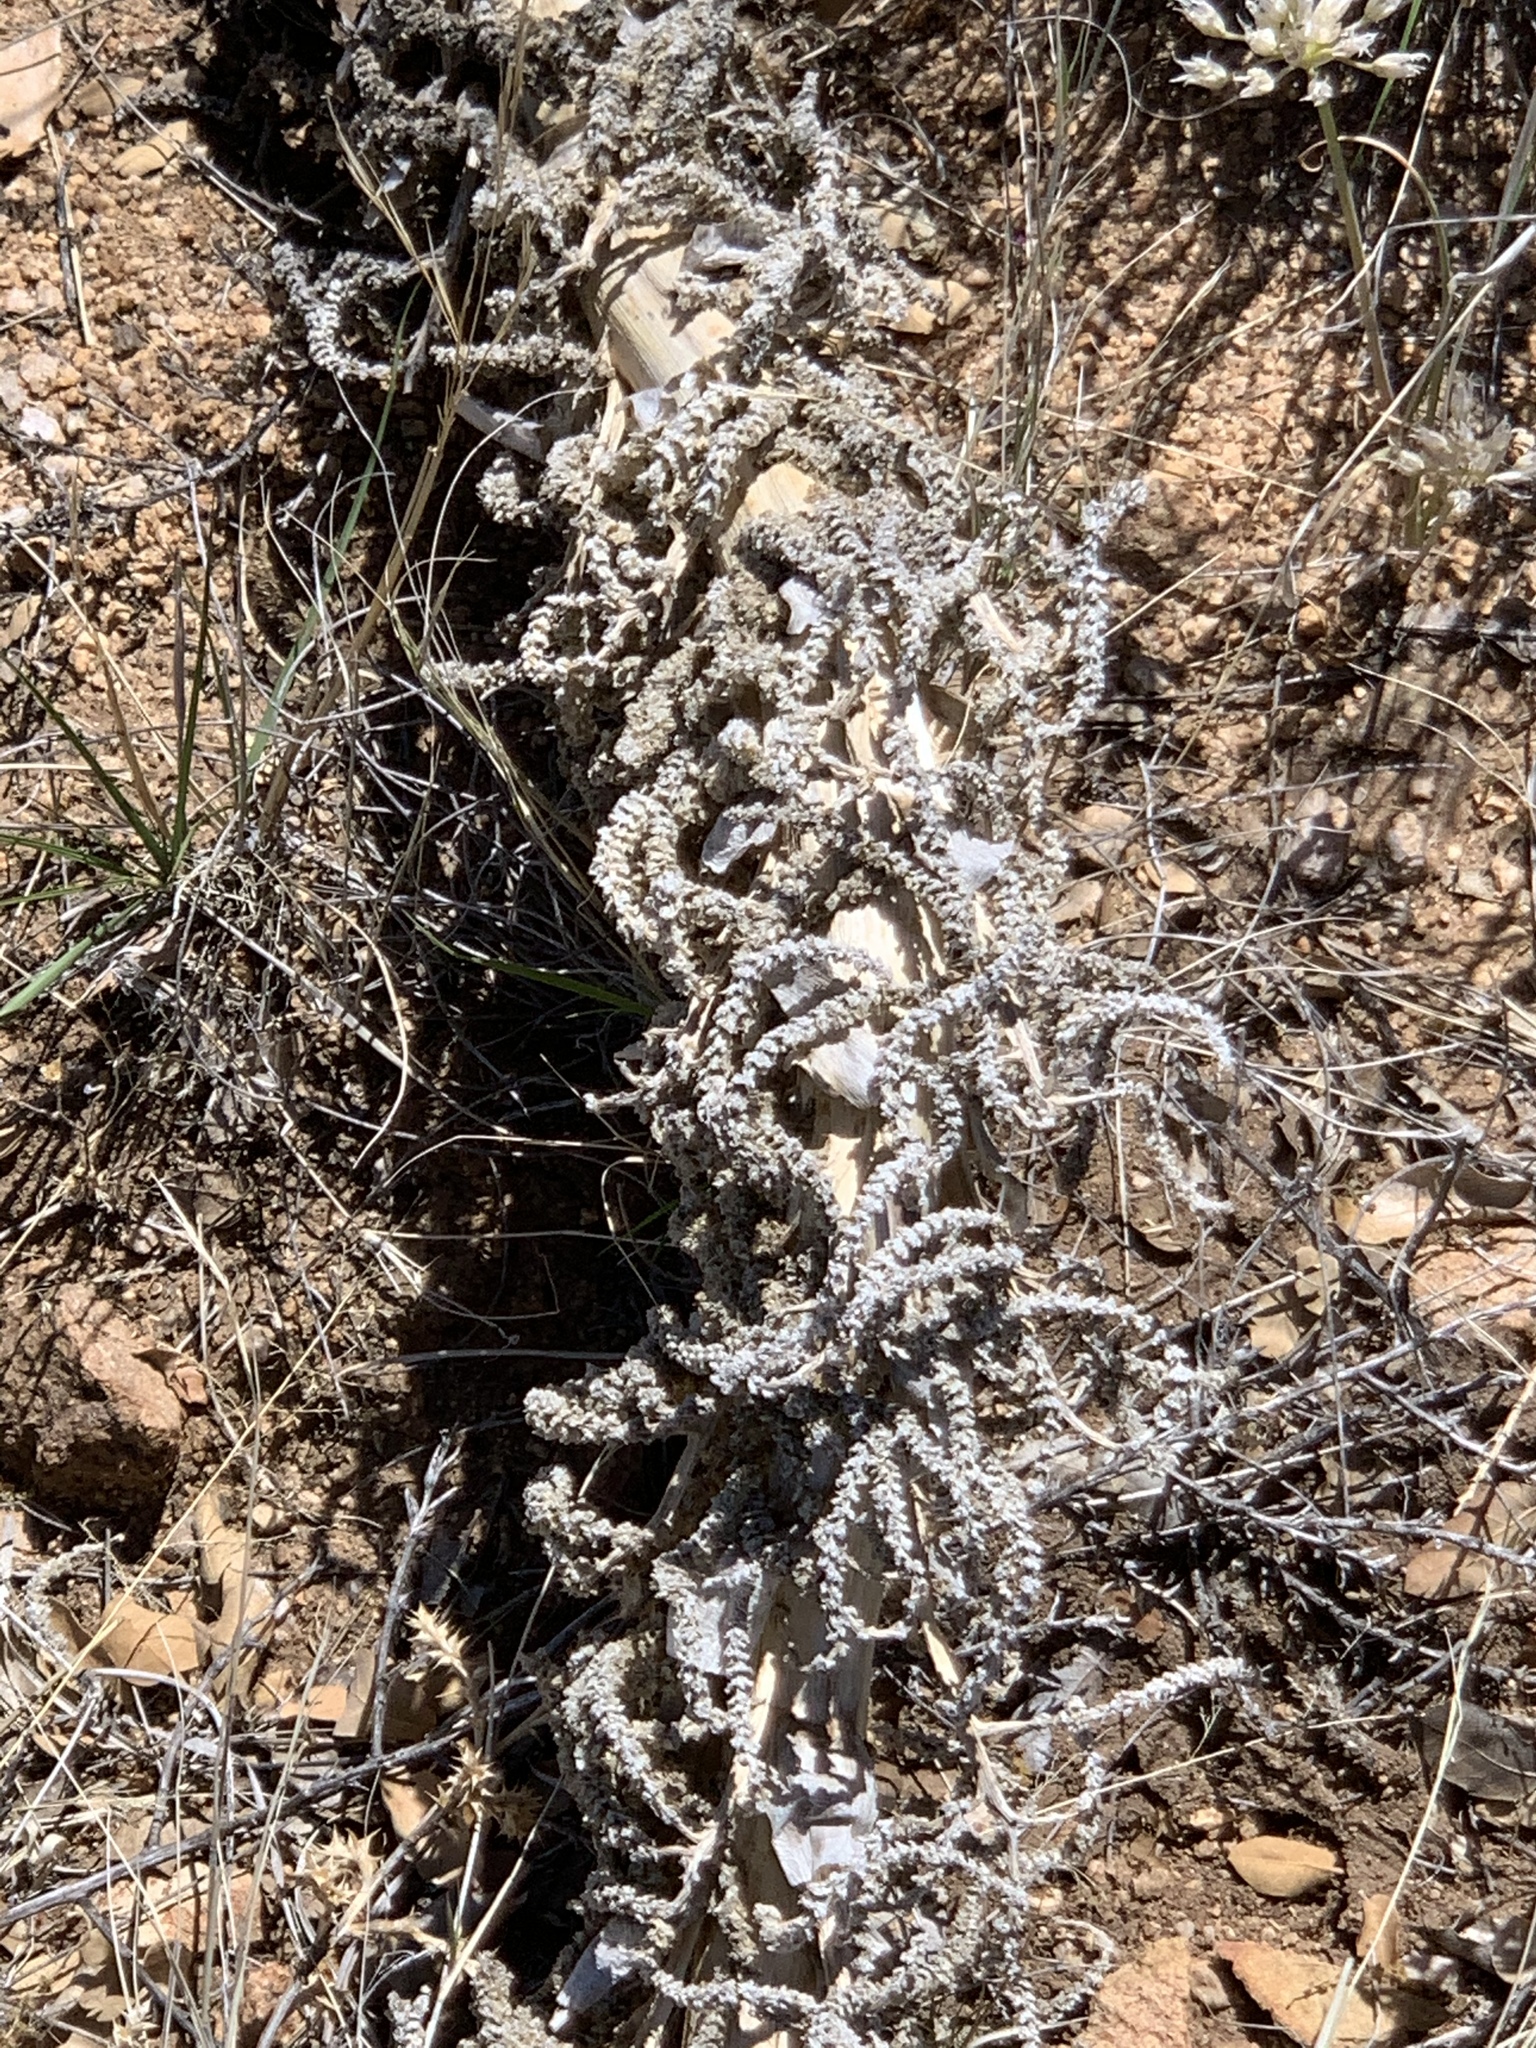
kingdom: Plantae
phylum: Tracheophyta
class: Liliopsida
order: Asparagales
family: Asparagaceae
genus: Dasylirion
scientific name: Dasylirion wheeleri
